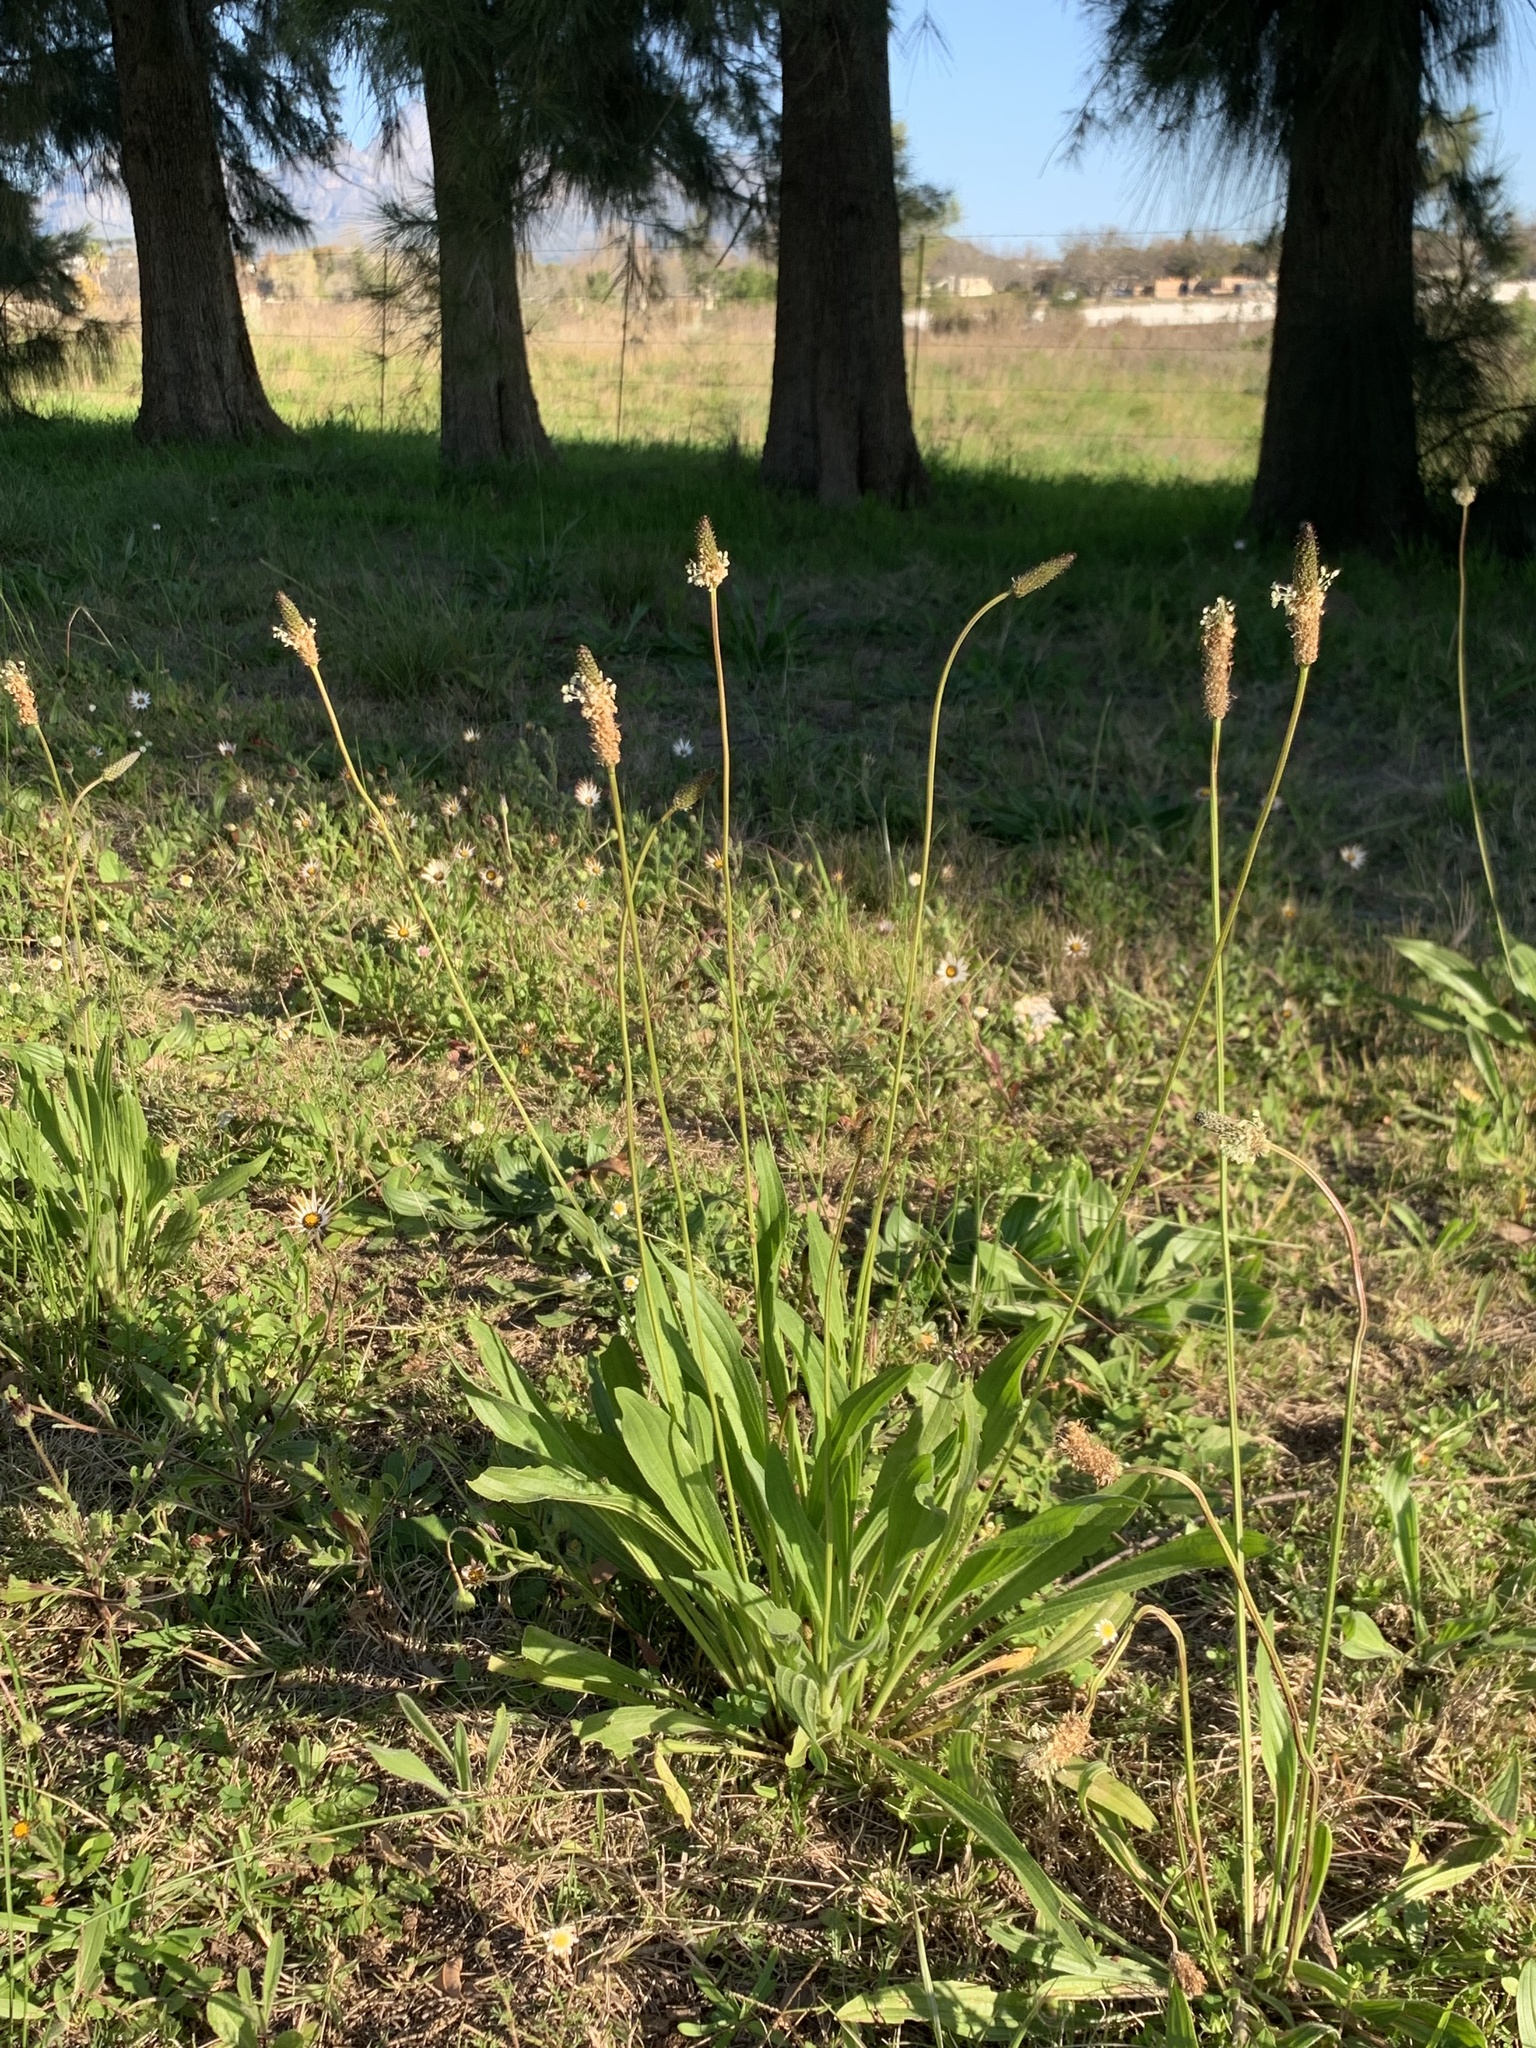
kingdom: Plantae
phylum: Tracheophyta
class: Magnoliopsida
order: Lamiales
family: Plantaginaceae
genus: Plantago
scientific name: Plantago lanceolata
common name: Ribwort plantain
